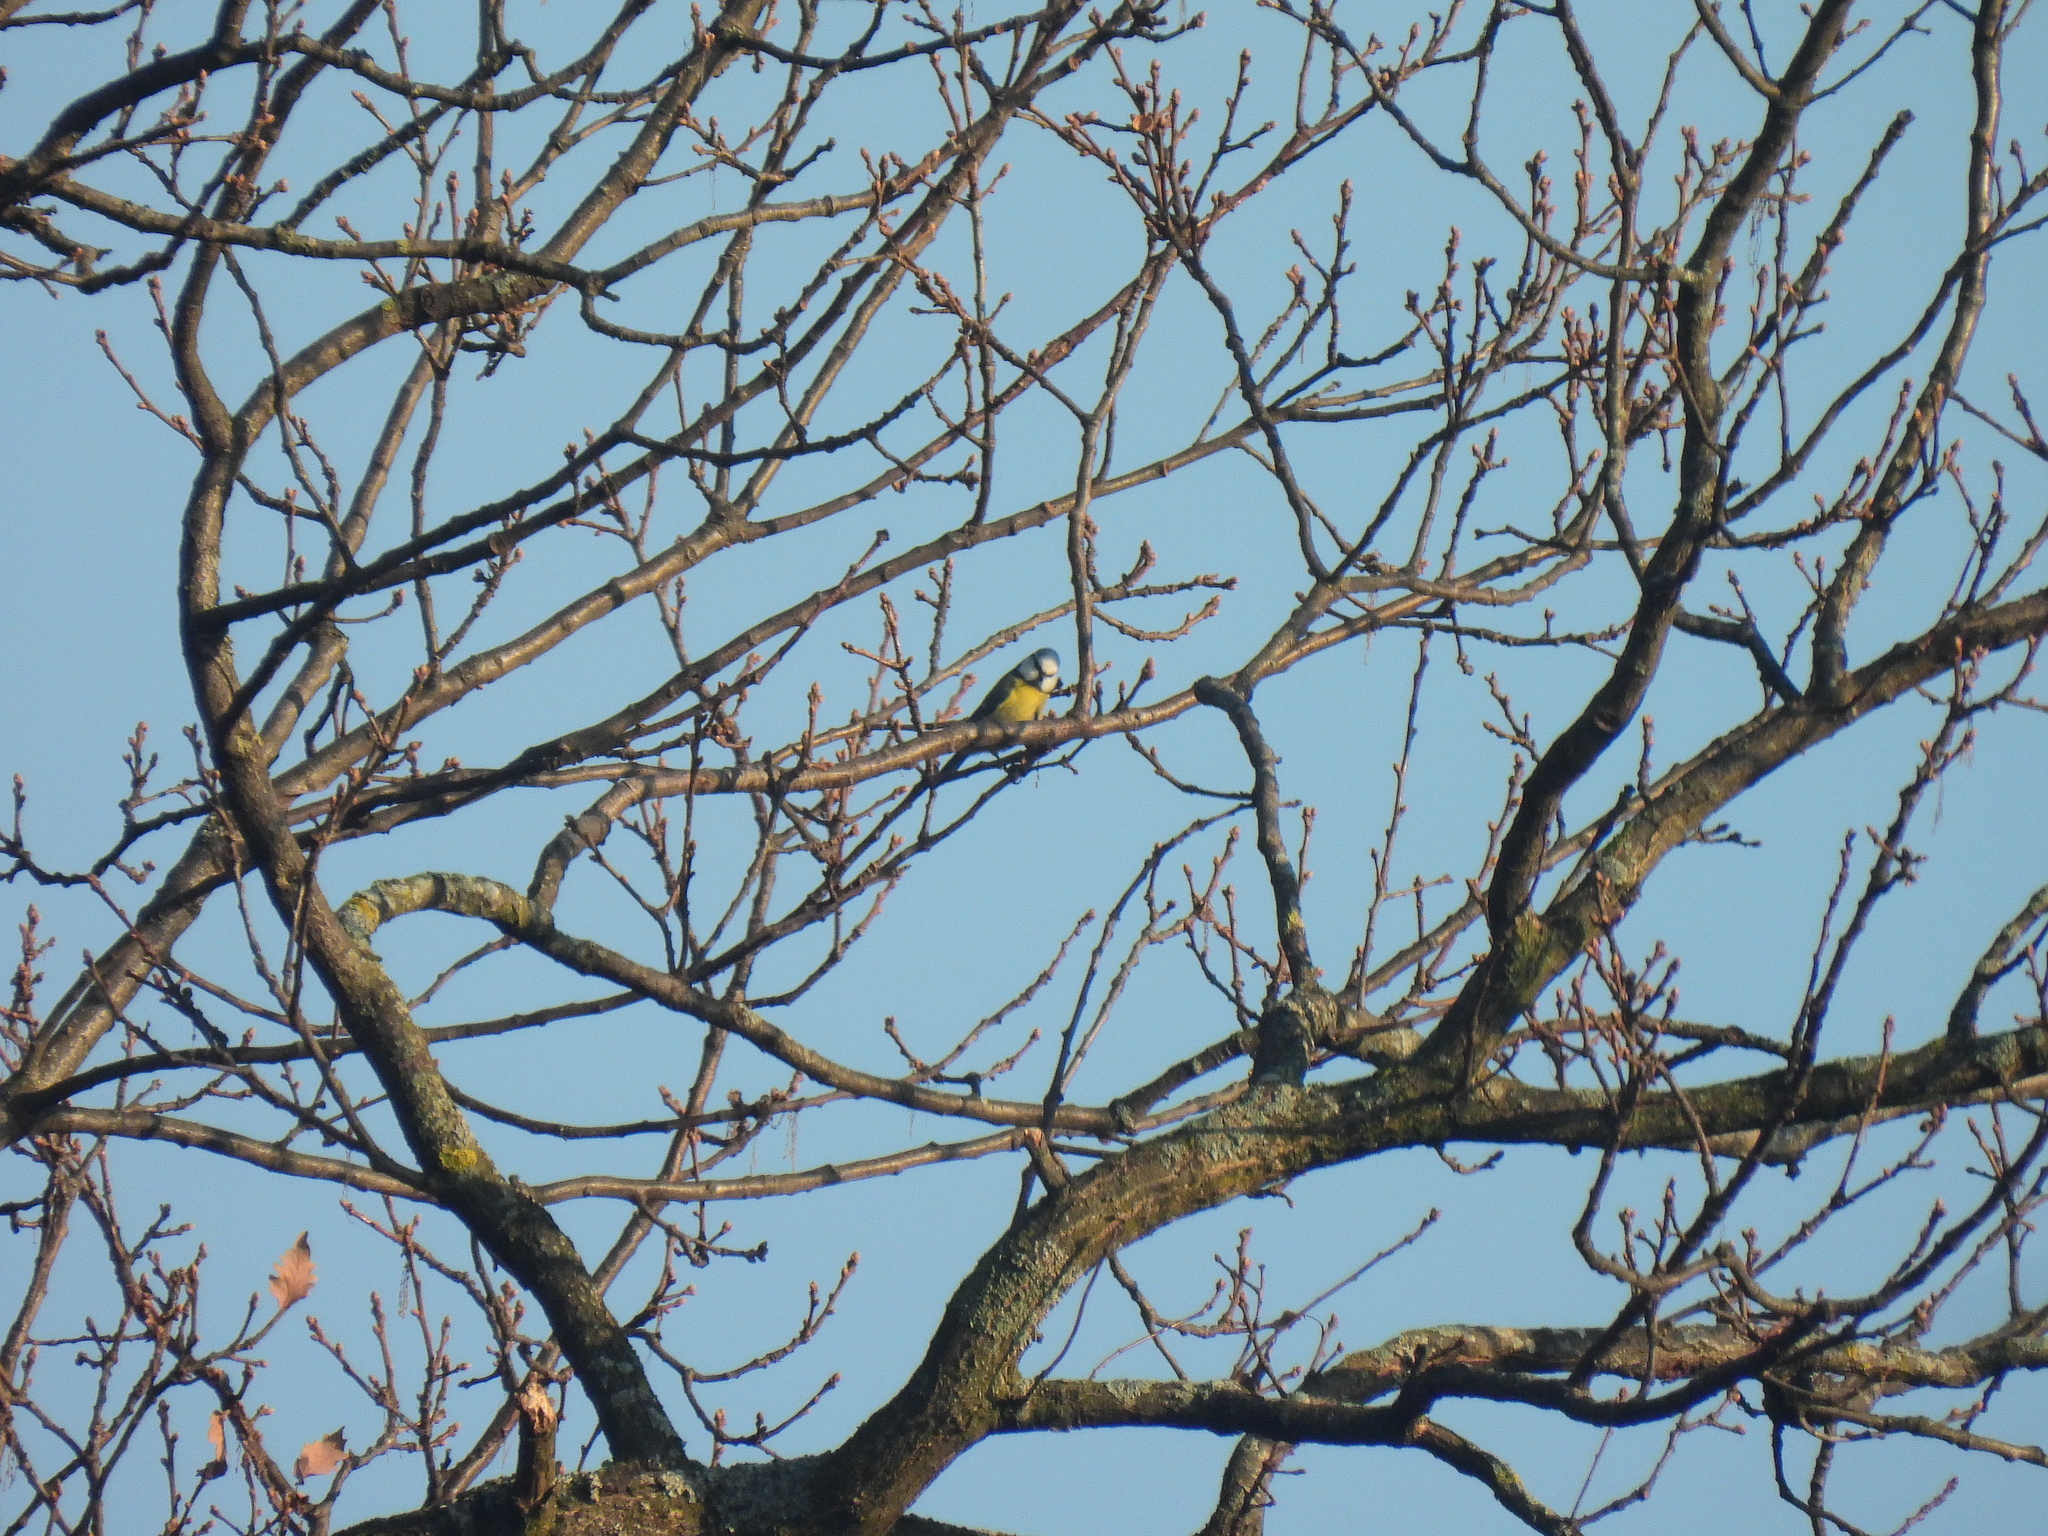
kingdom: Animalia
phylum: Chordata
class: Aves
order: Passeriformes
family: Paridae
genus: Cyanistes
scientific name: Cyanistes caeruleus
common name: Eurasian blue tit
